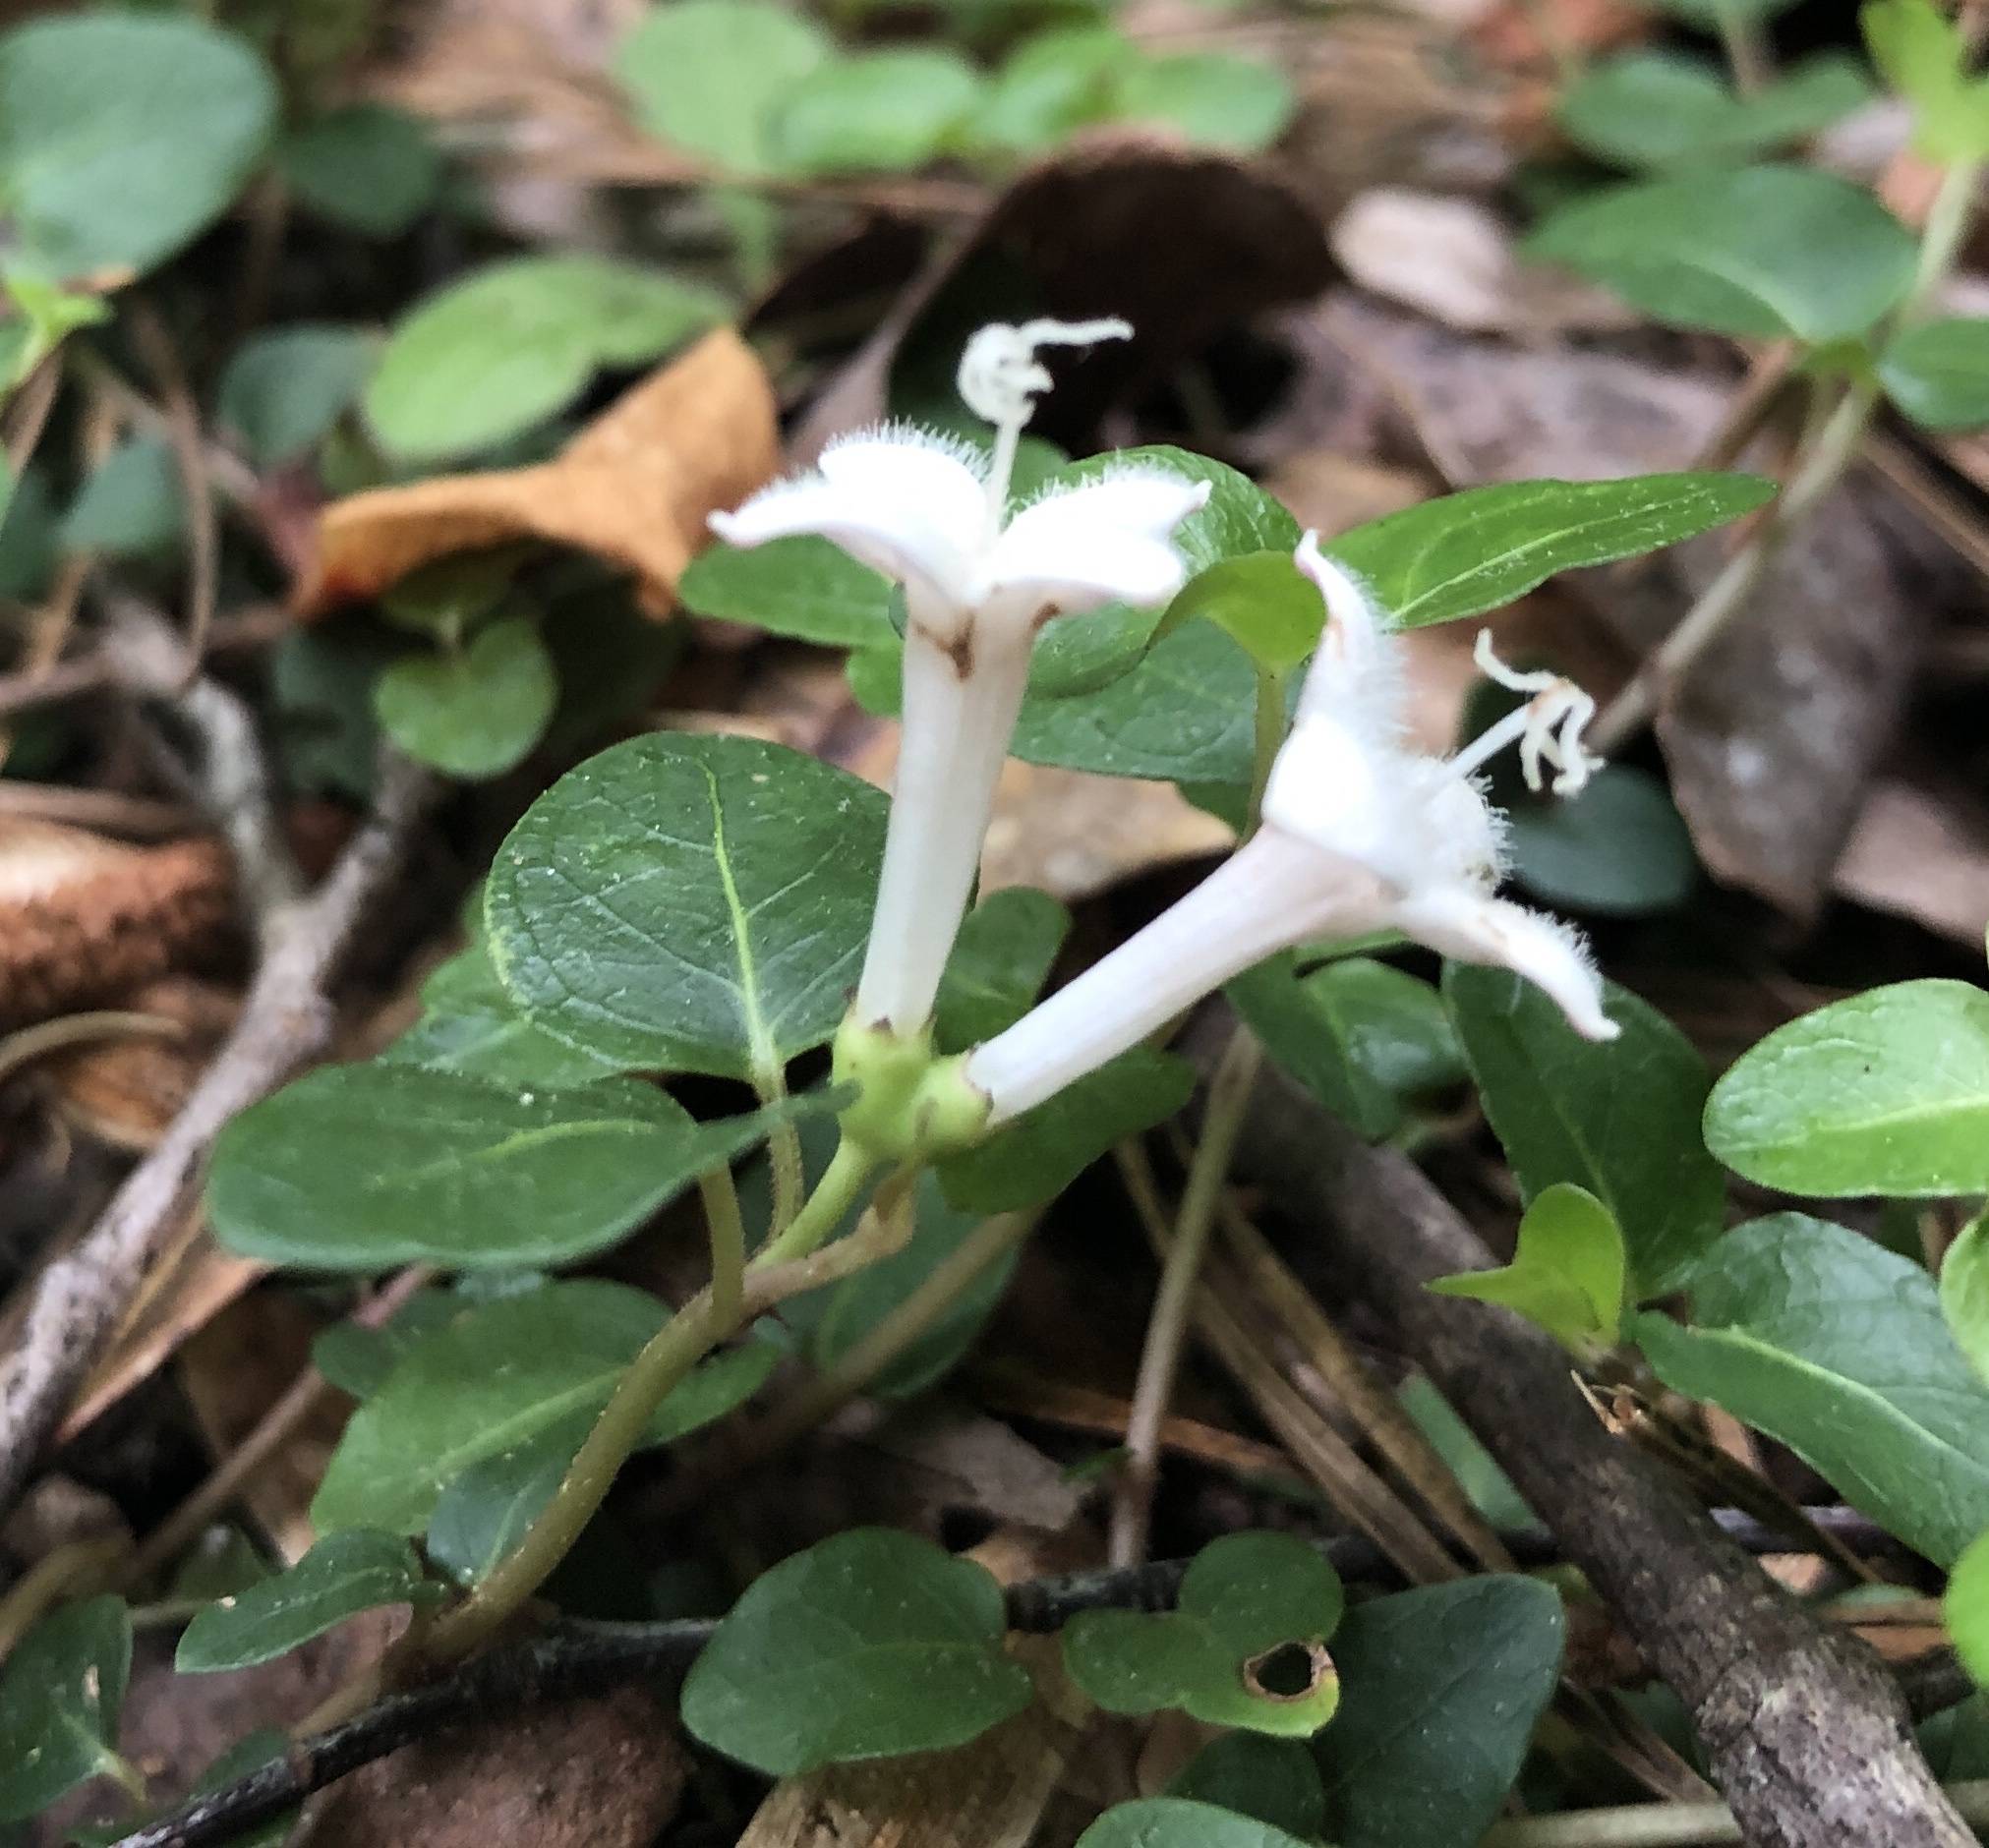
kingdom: Plantae
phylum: Tracheophyta
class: Magnoliopsida
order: Gentianales
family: Rubiaceae
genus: Mitchella
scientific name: Mitchella repens
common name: Partridge-berry
